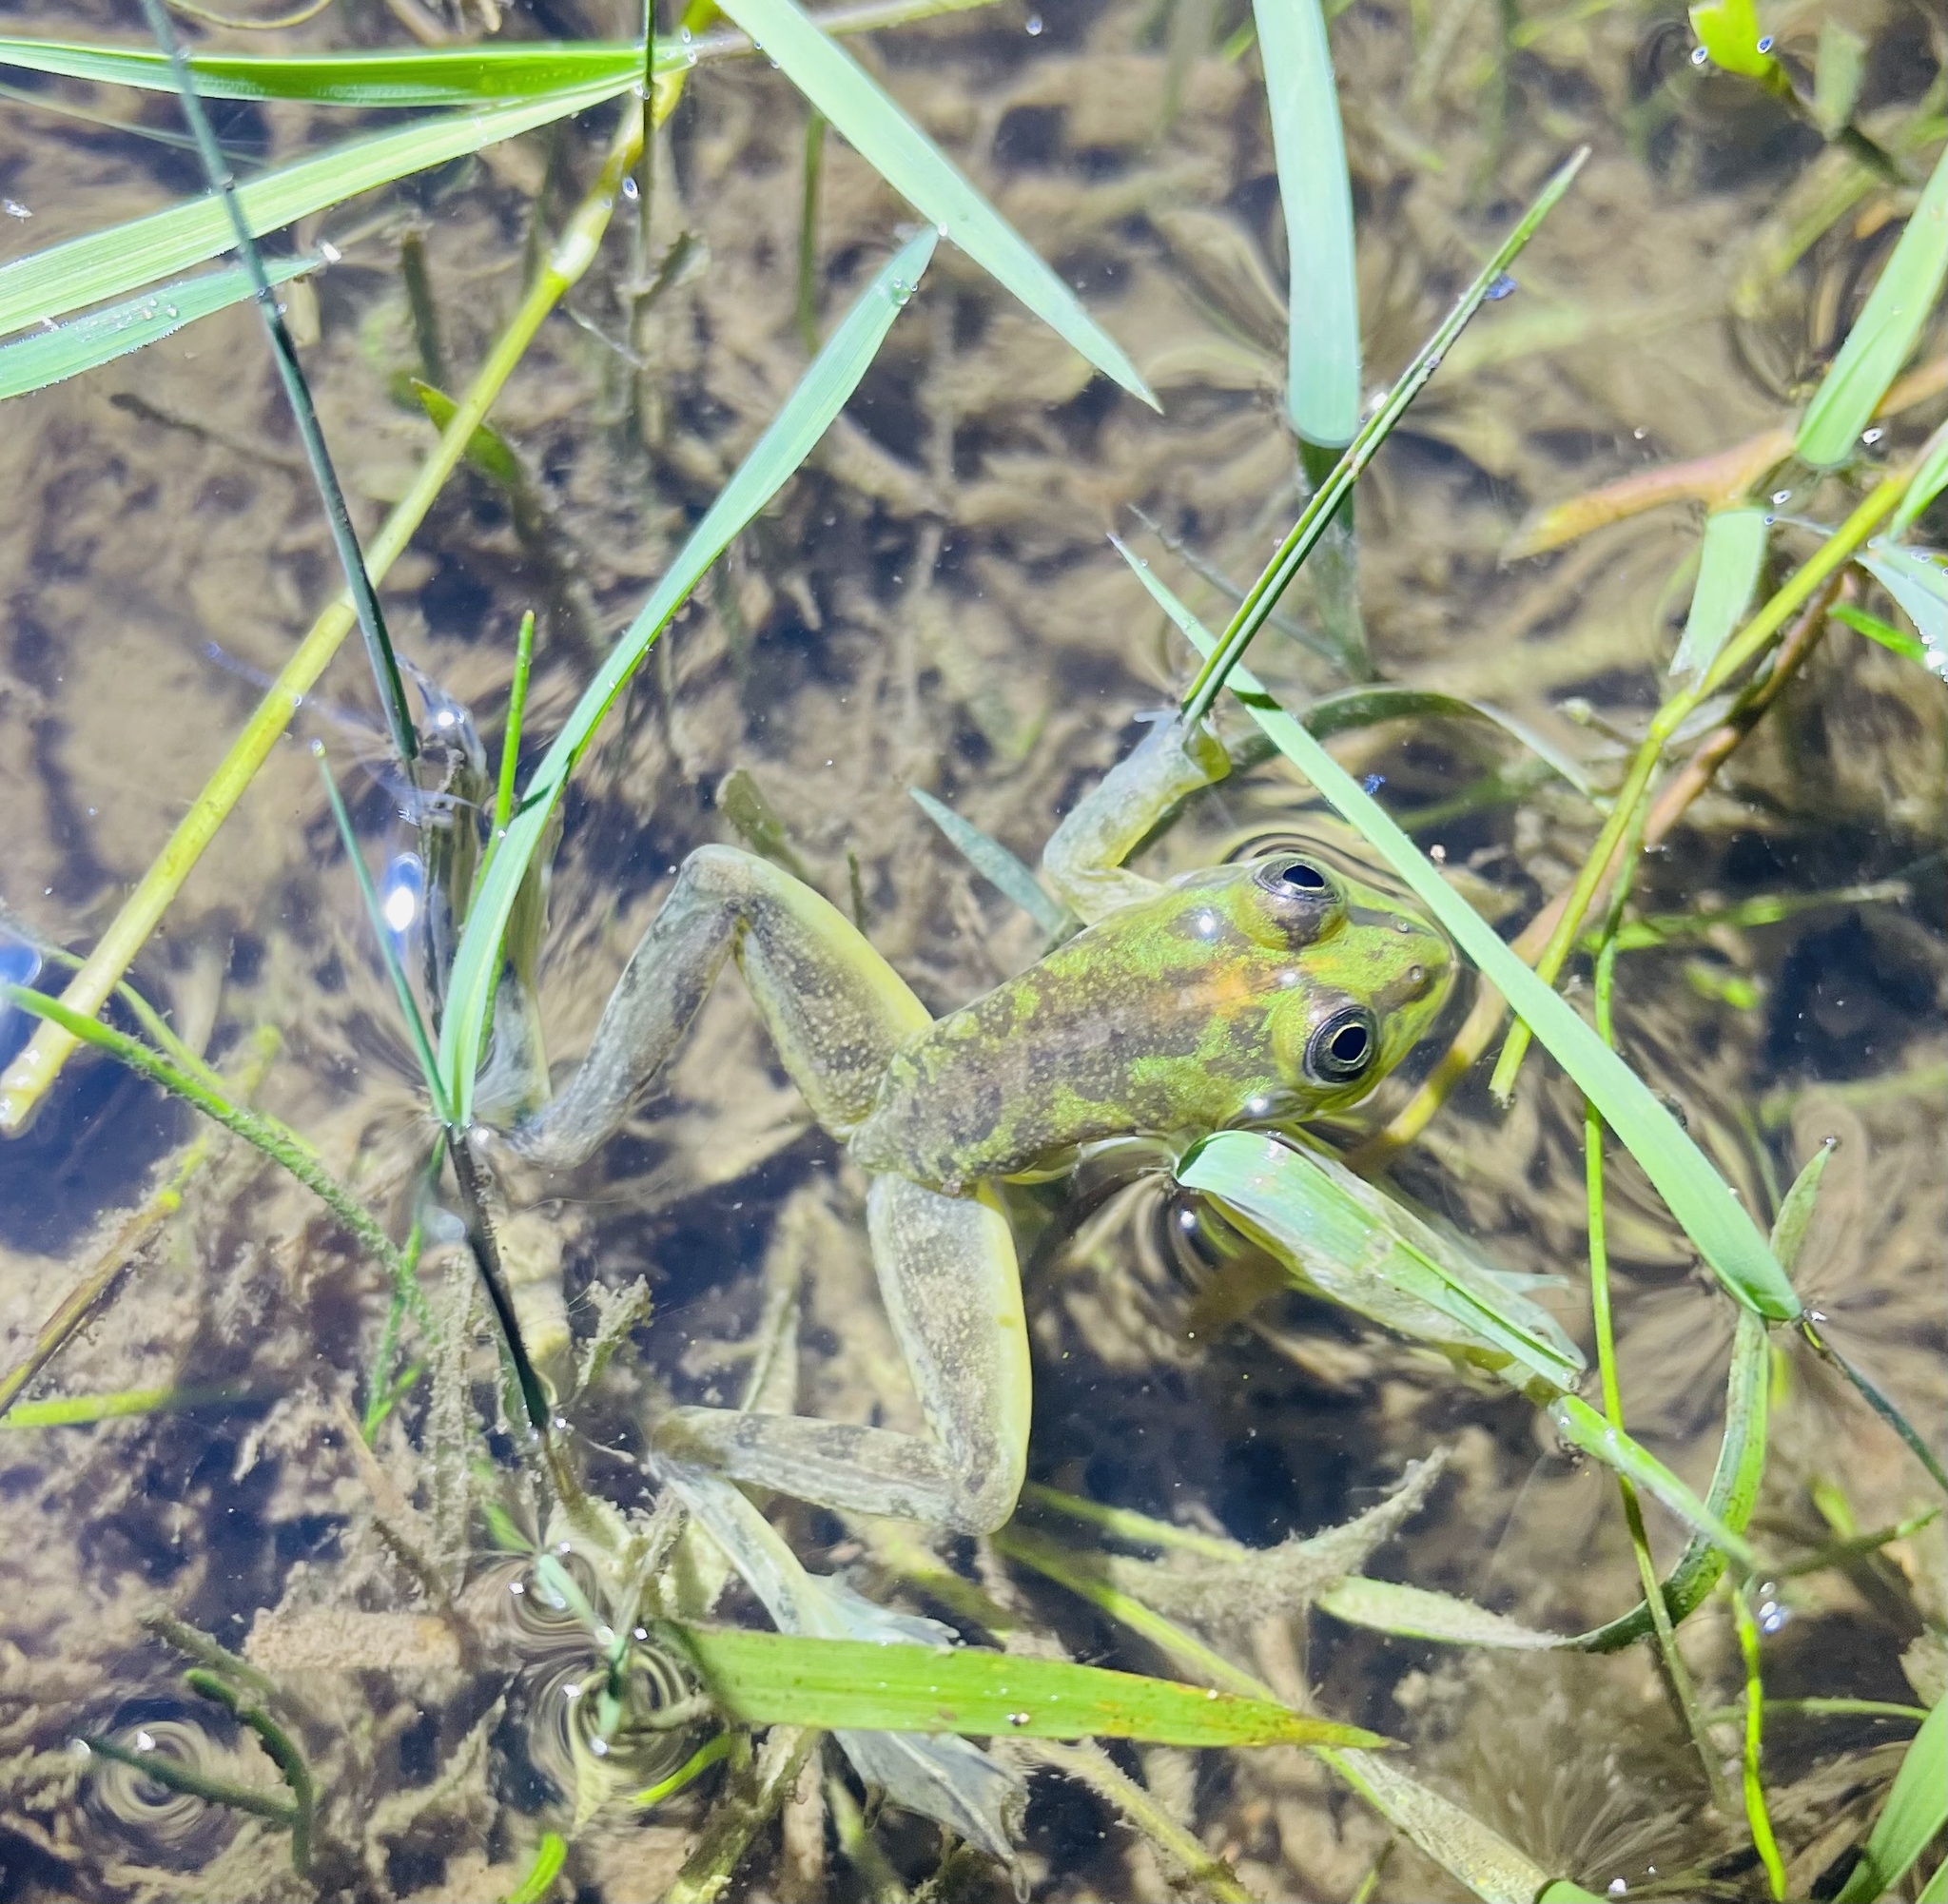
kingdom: Animalia
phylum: Chordata
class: Amphibia
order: Anura
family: Hylidae
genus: Pseudis
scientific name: Pseudis minuta
